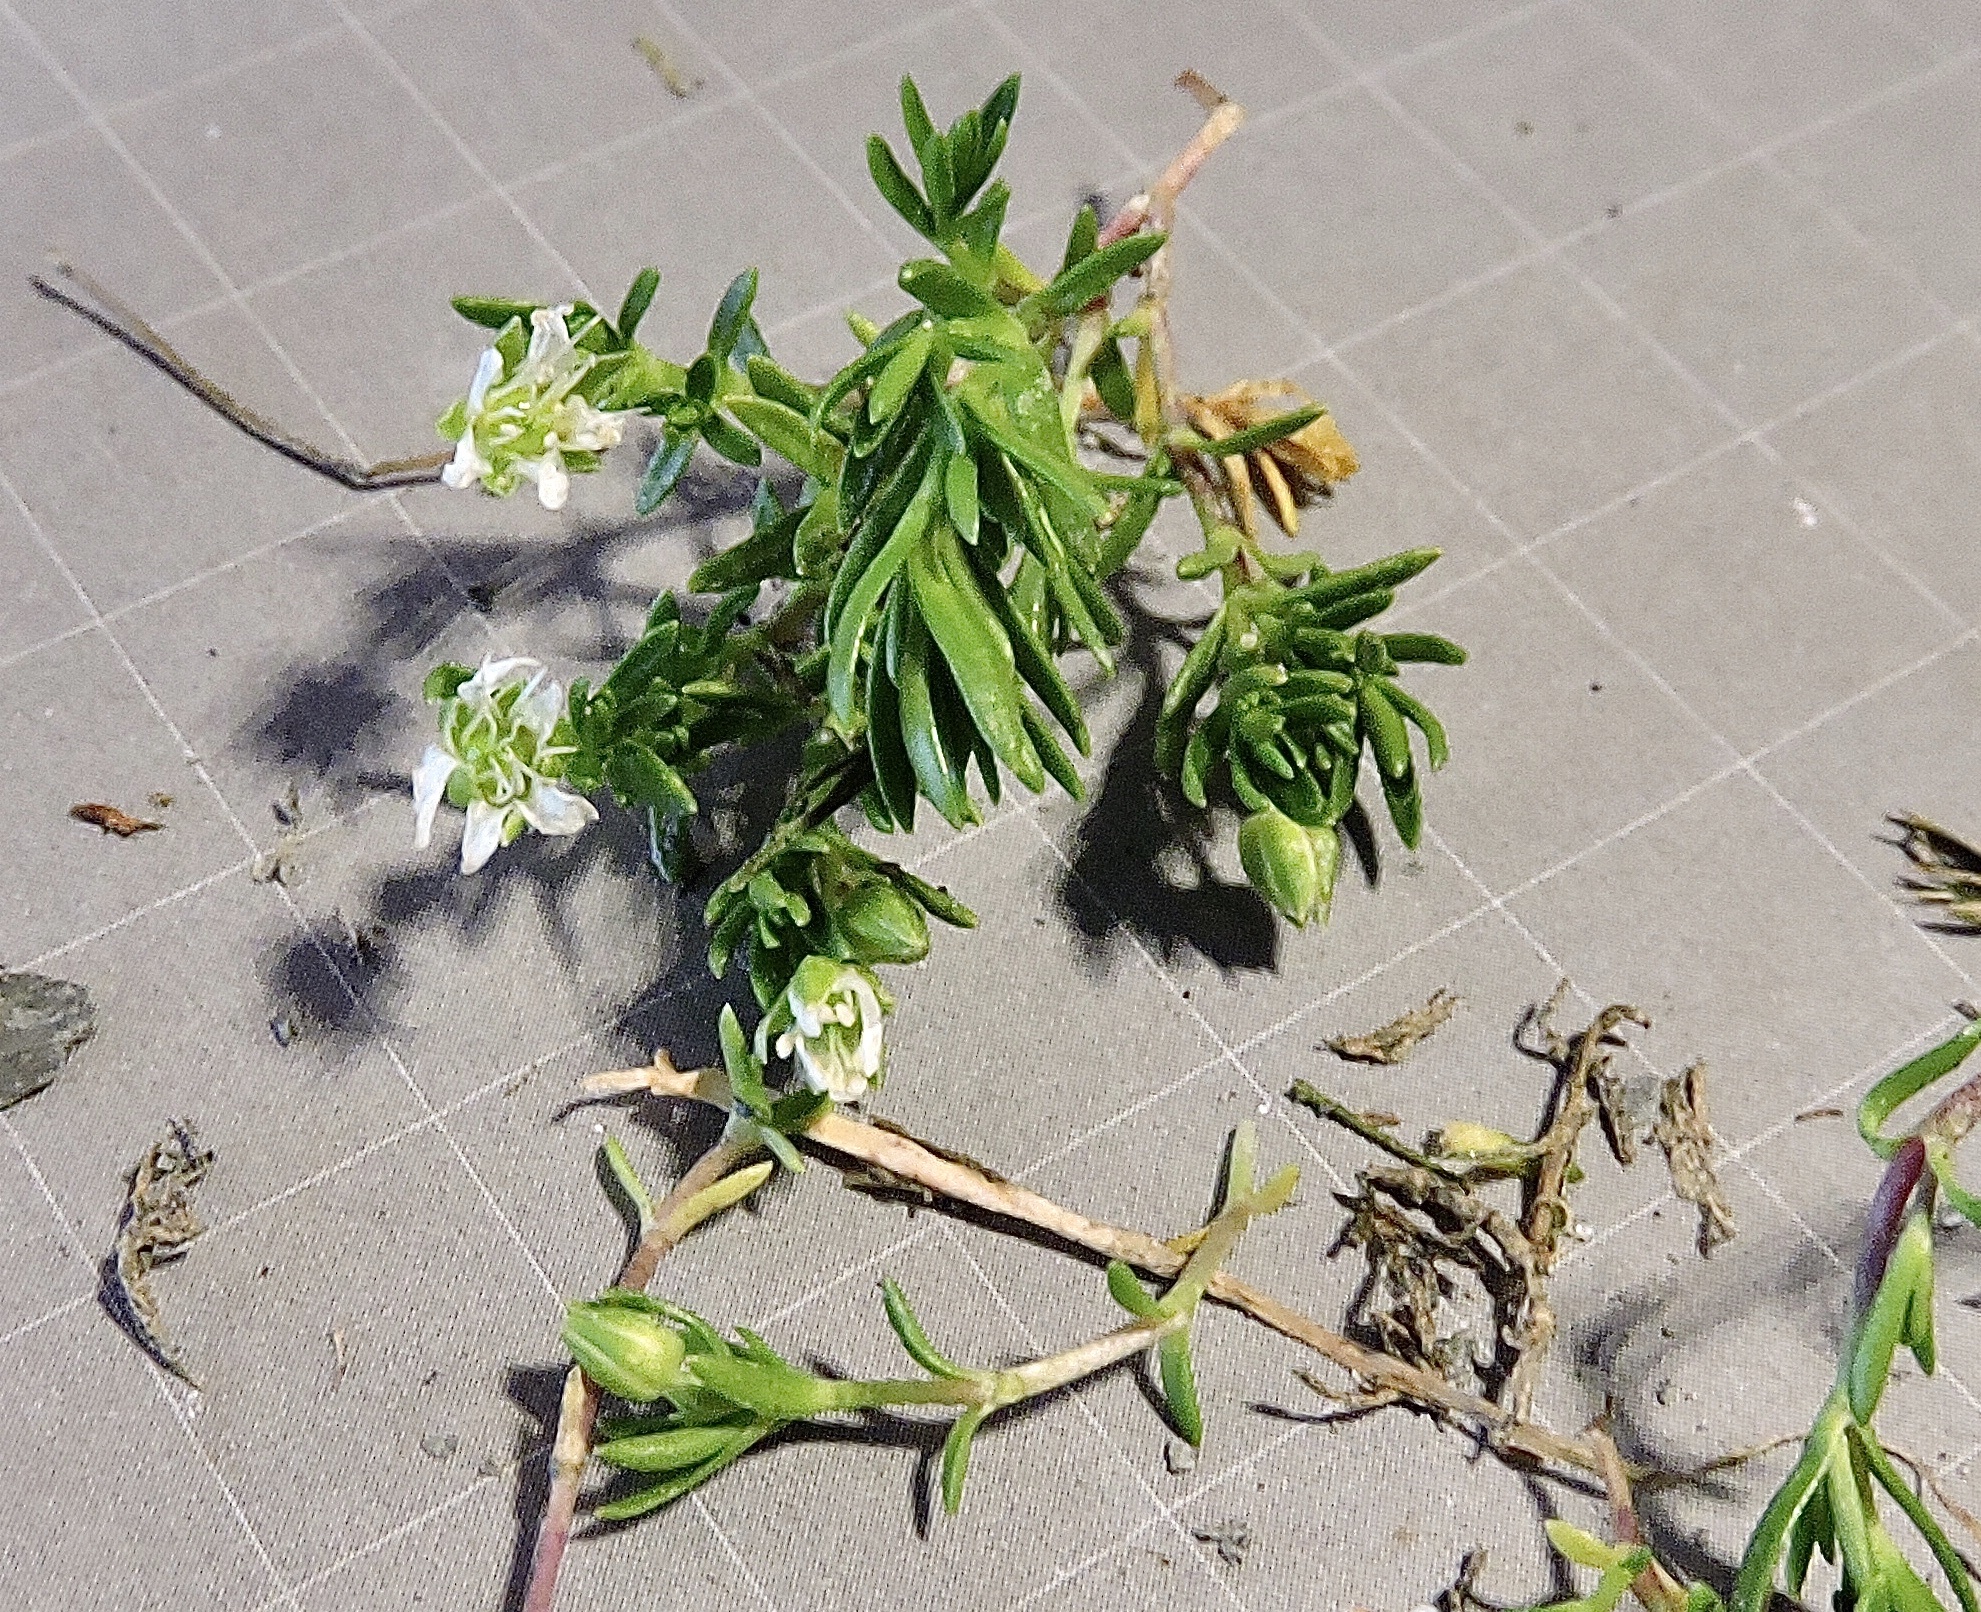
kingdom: Plantae
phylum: Tracheophyta
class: Magnoliopsida
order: Caryophyllales
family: Caryophyllaceae
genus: Moehringia
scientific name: Moehringia ciliata
